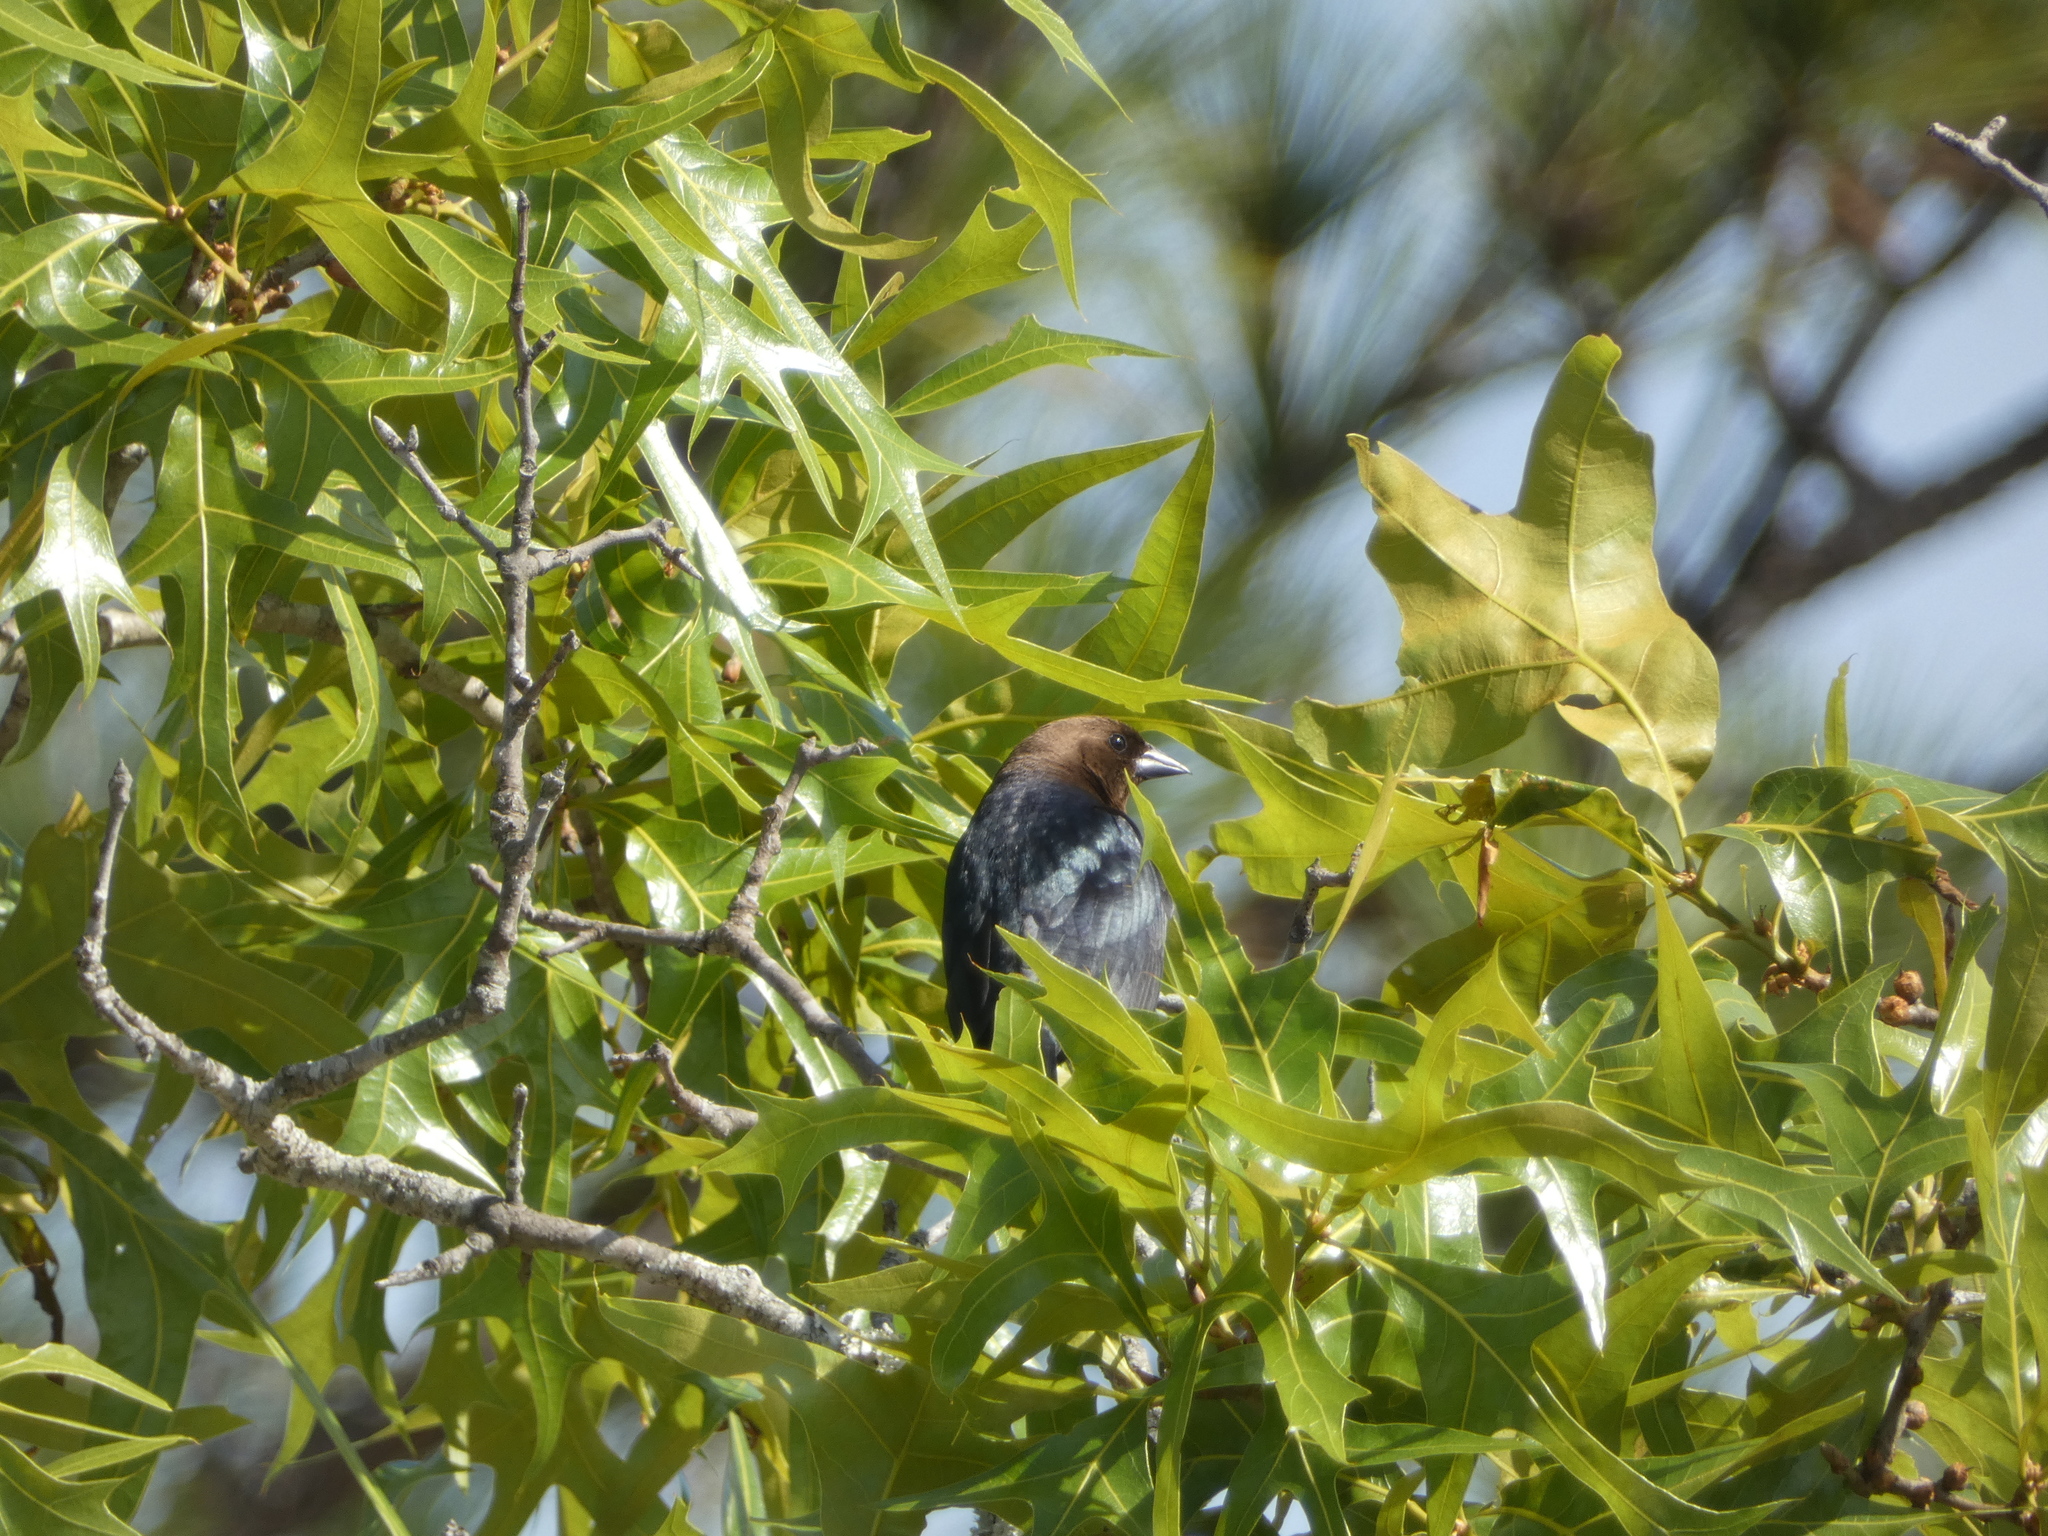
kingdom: Animalia
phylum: Chordata
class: Aves
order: Passeriformes
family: Icteridae
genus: Molothrus
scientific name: Molothrus ater
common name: Brown-headed cowbird
